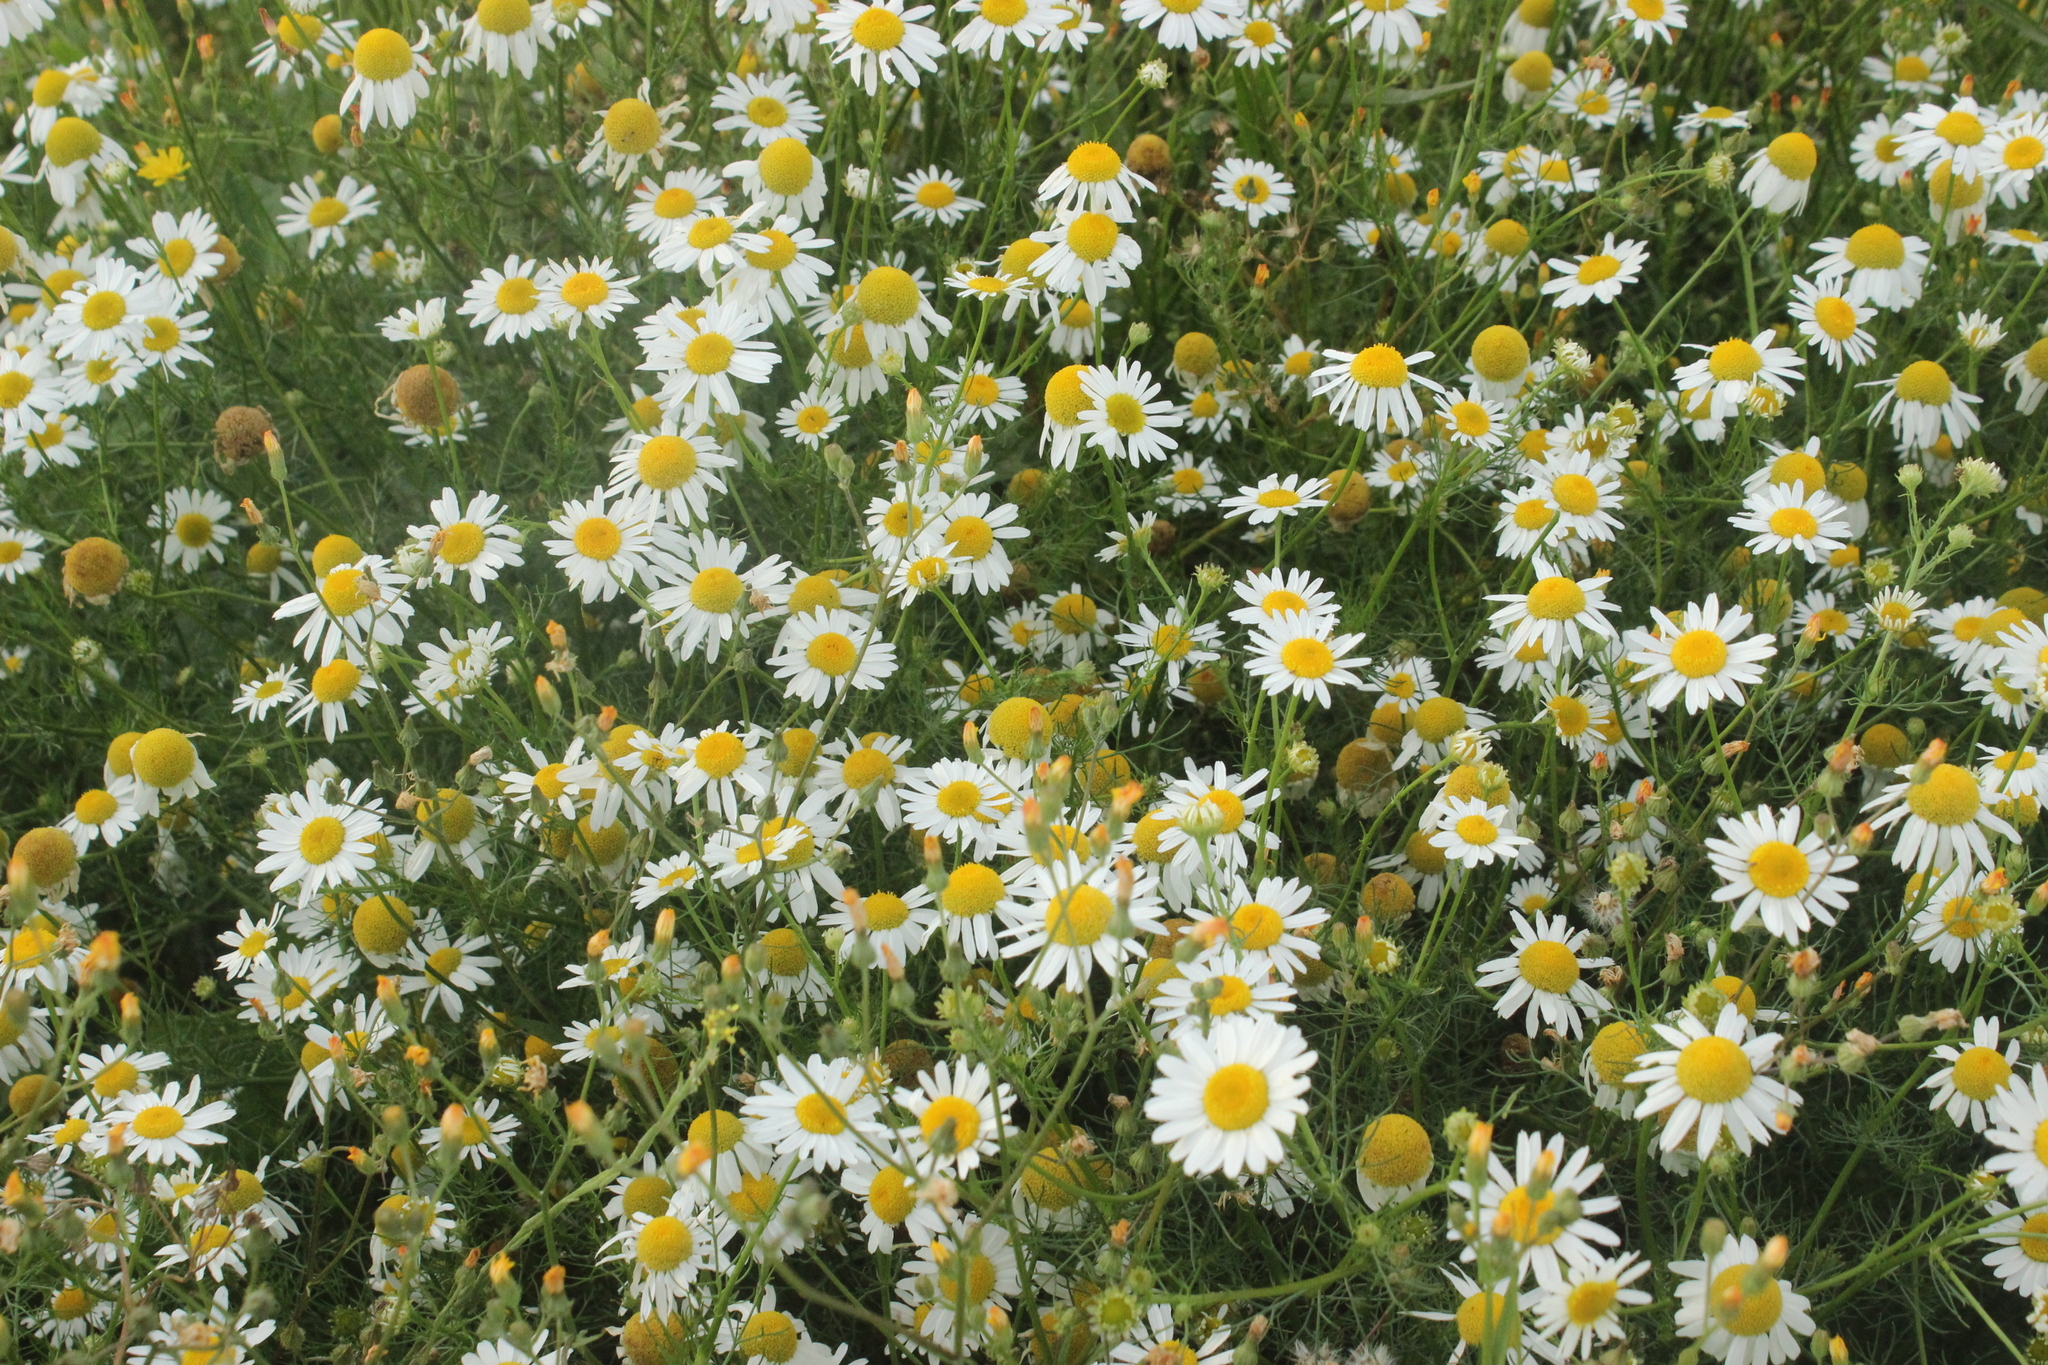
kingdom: Plantae
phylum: Tracheophyta
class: Magnoliopsida
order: Asterales
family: Asteraceae
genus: Tripleurospermum
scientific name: Tripleurospermum inodorum
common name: Scentless mayweed
